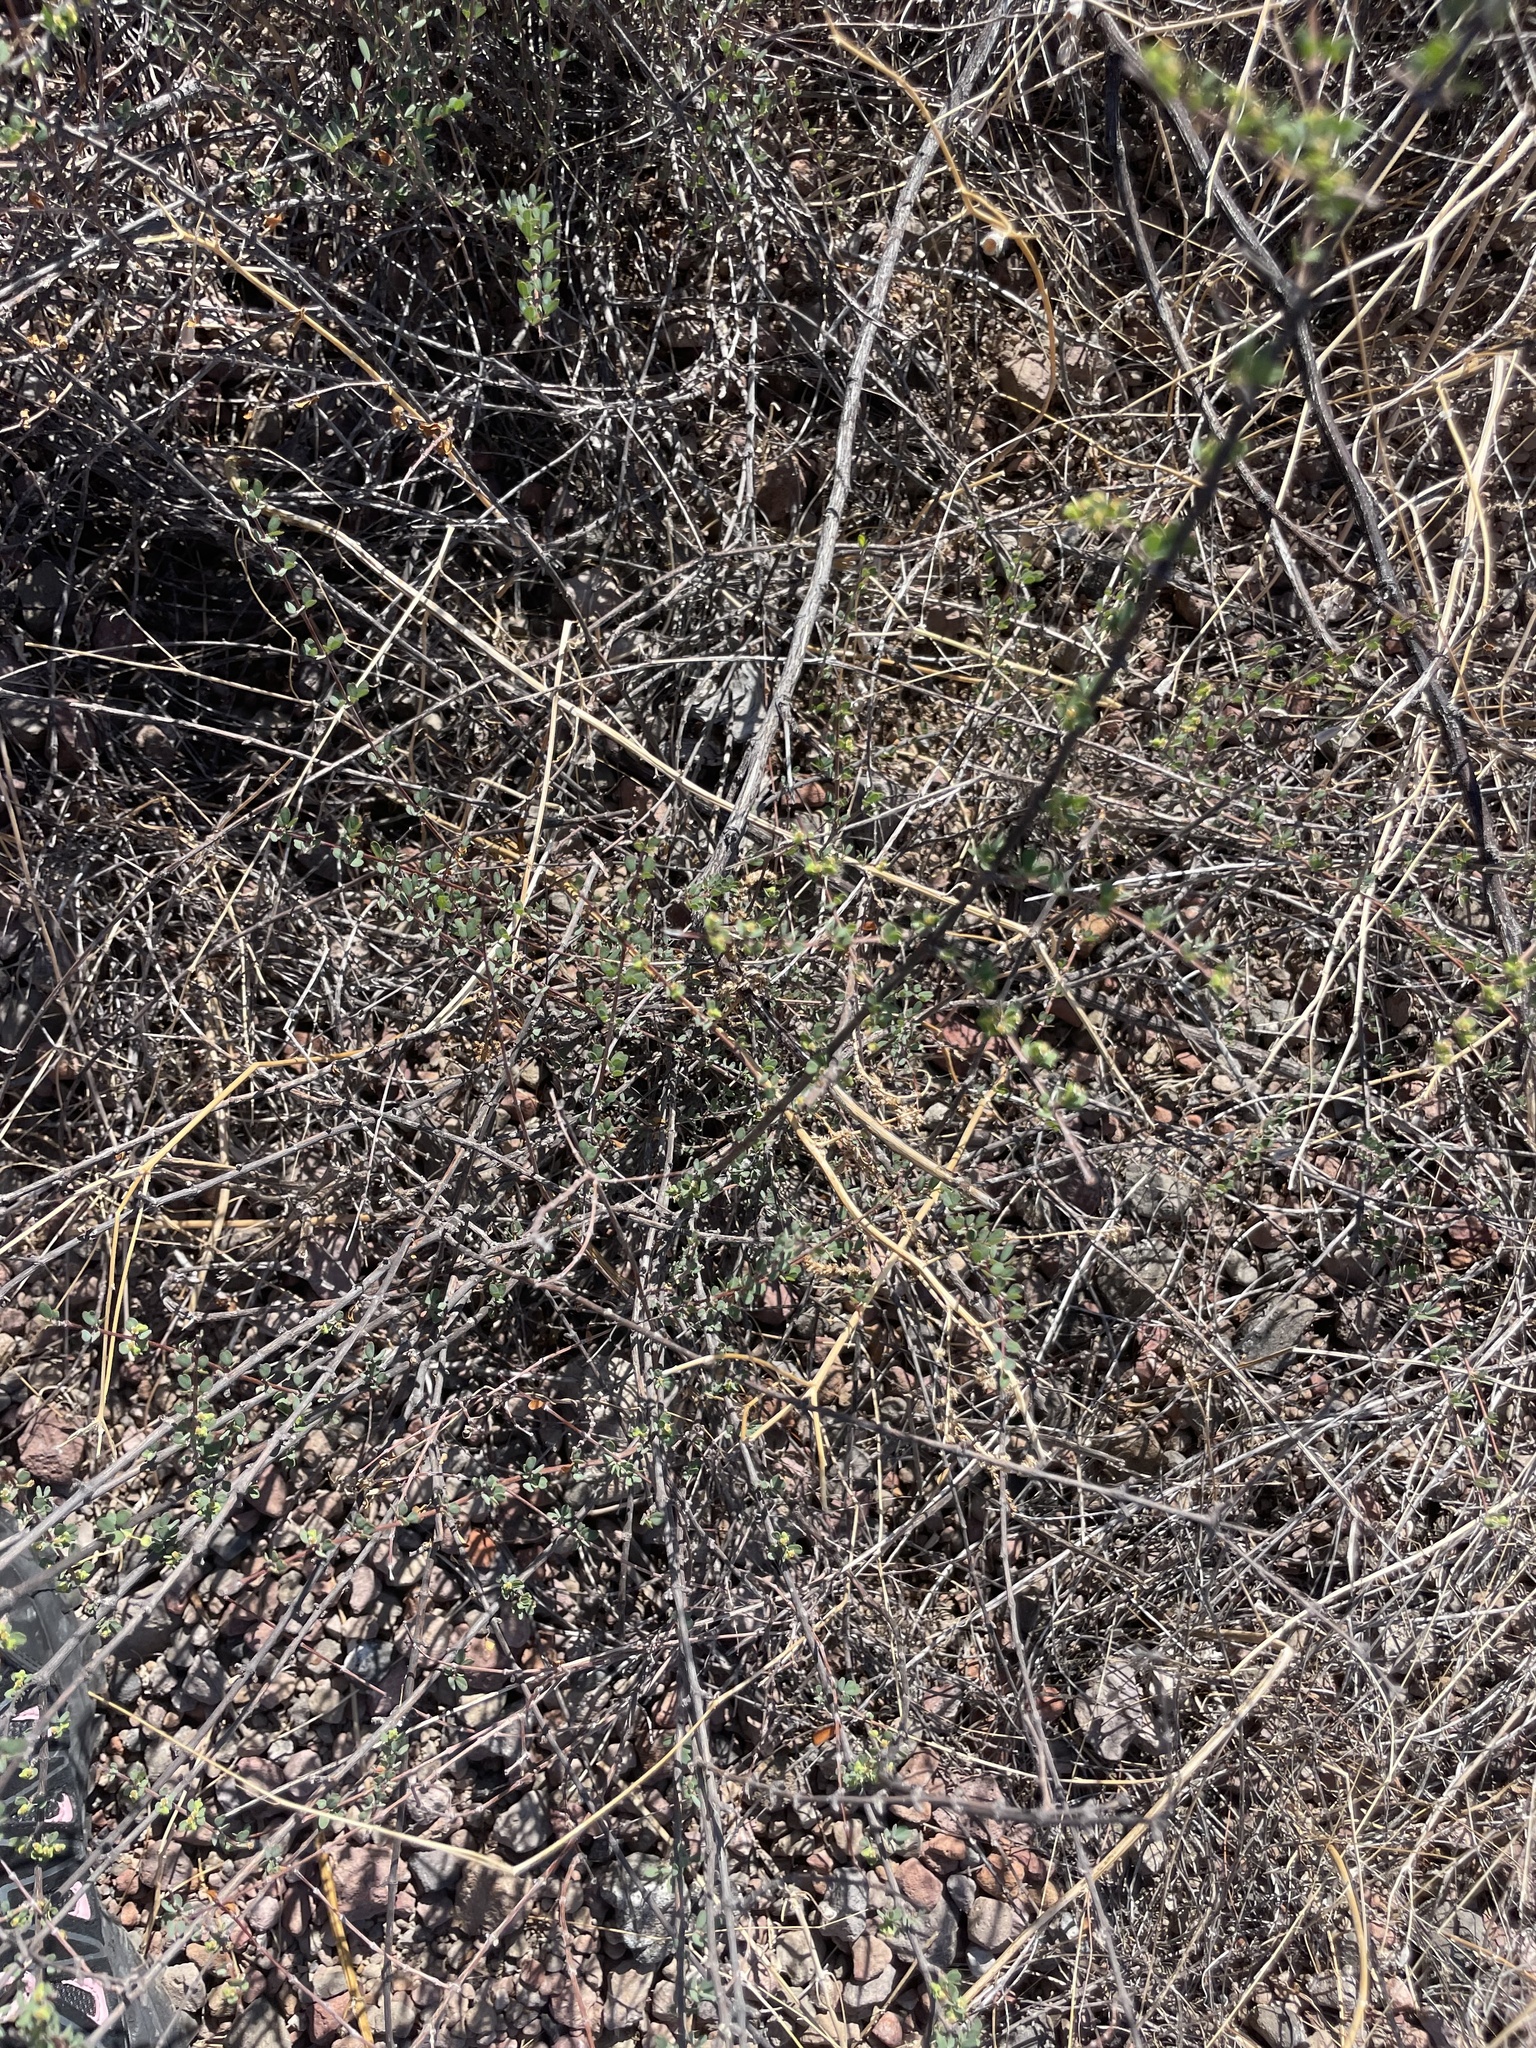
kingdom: Plantae
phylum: Tracheophyta
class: Magnoliopsida
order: Malpighiales
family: Euphorbiaceae
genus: Euphorbia
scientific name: Euphorbia magdalenae
